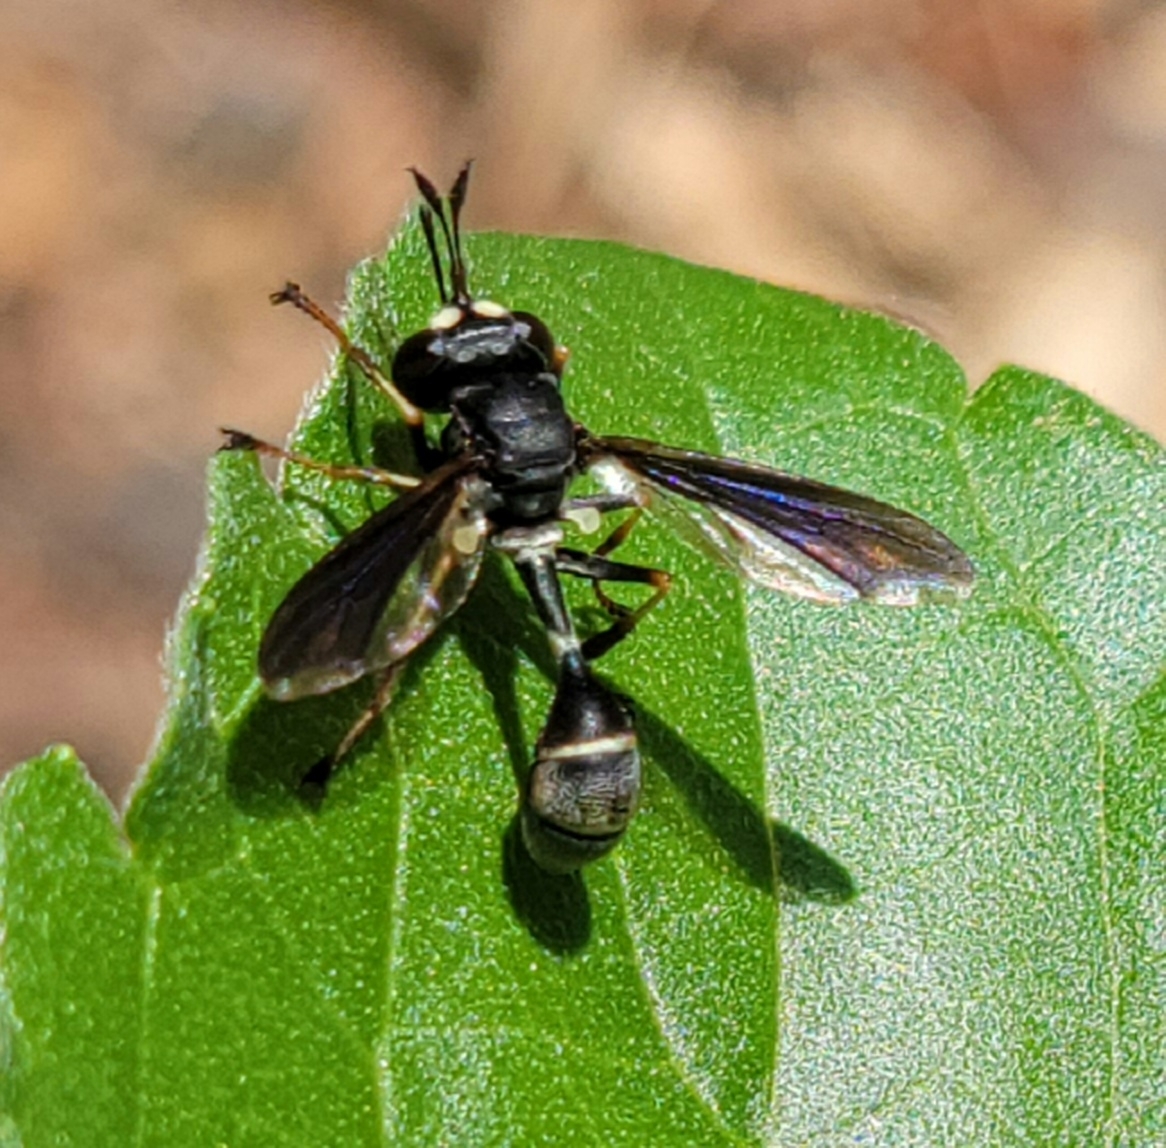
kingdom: Animalia
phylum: Arthropoda
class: Insecta
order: Diptera
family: Conopidae
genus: Physocephala
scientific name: Physocephala tibialis
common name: Common eastern physocephala
